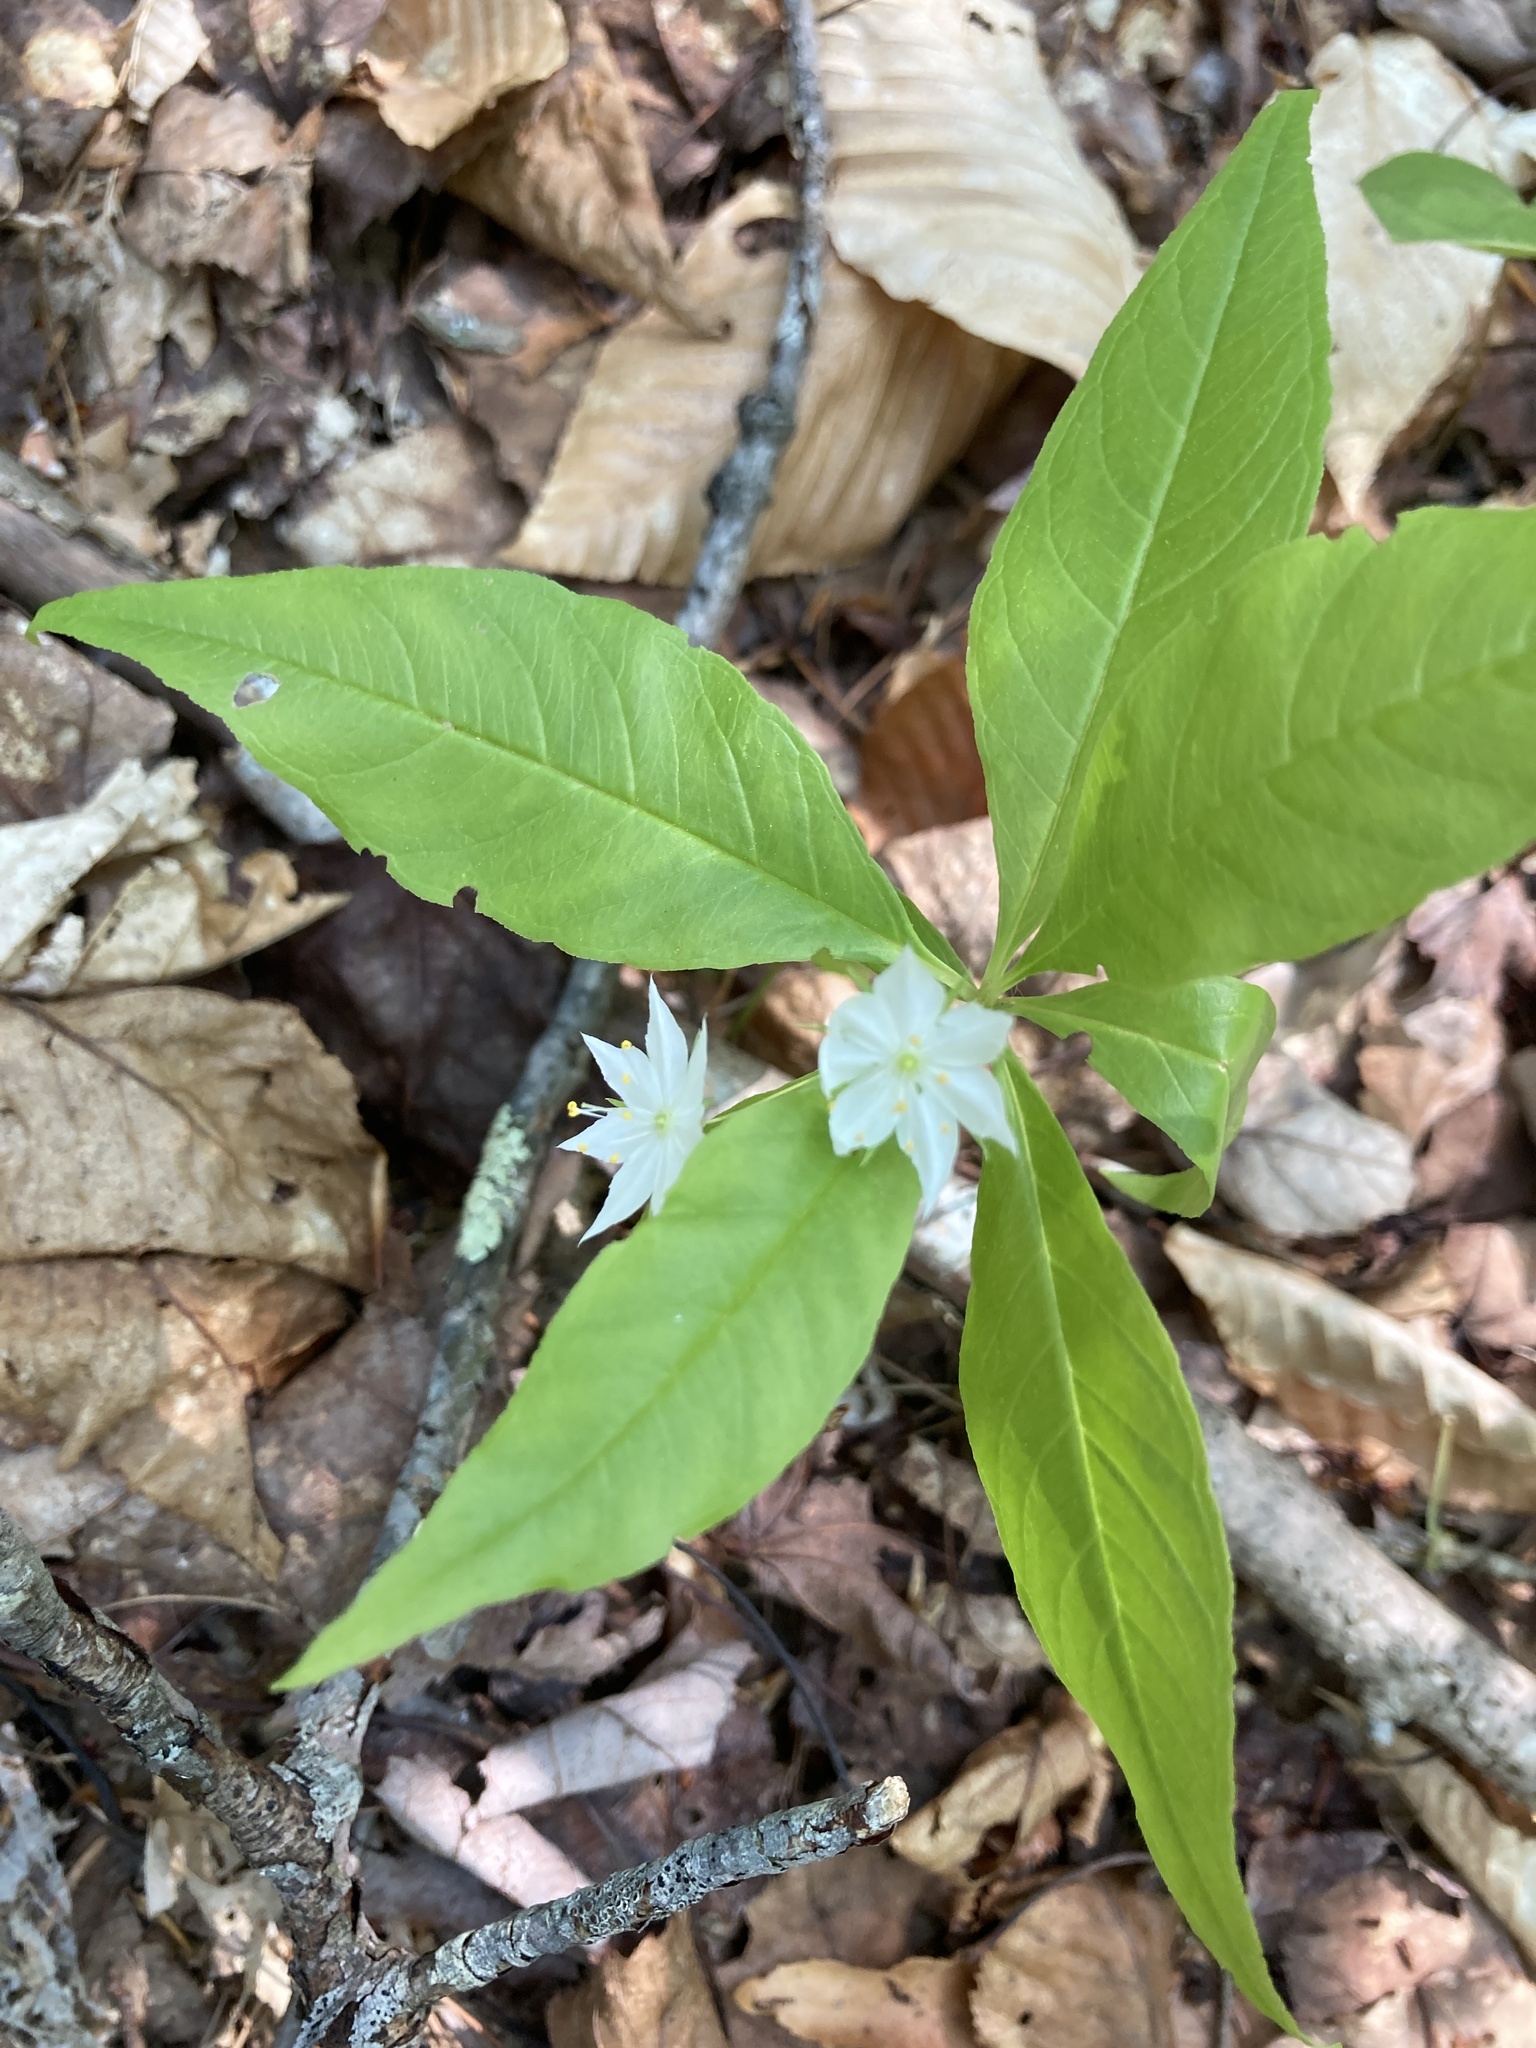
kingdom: Plantae
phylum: Tracheophyta
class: Magnoliopsida
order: Ericales
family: Primulaceae
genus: Lysimachia
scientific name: Lysimachia borealis
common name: American starflower
